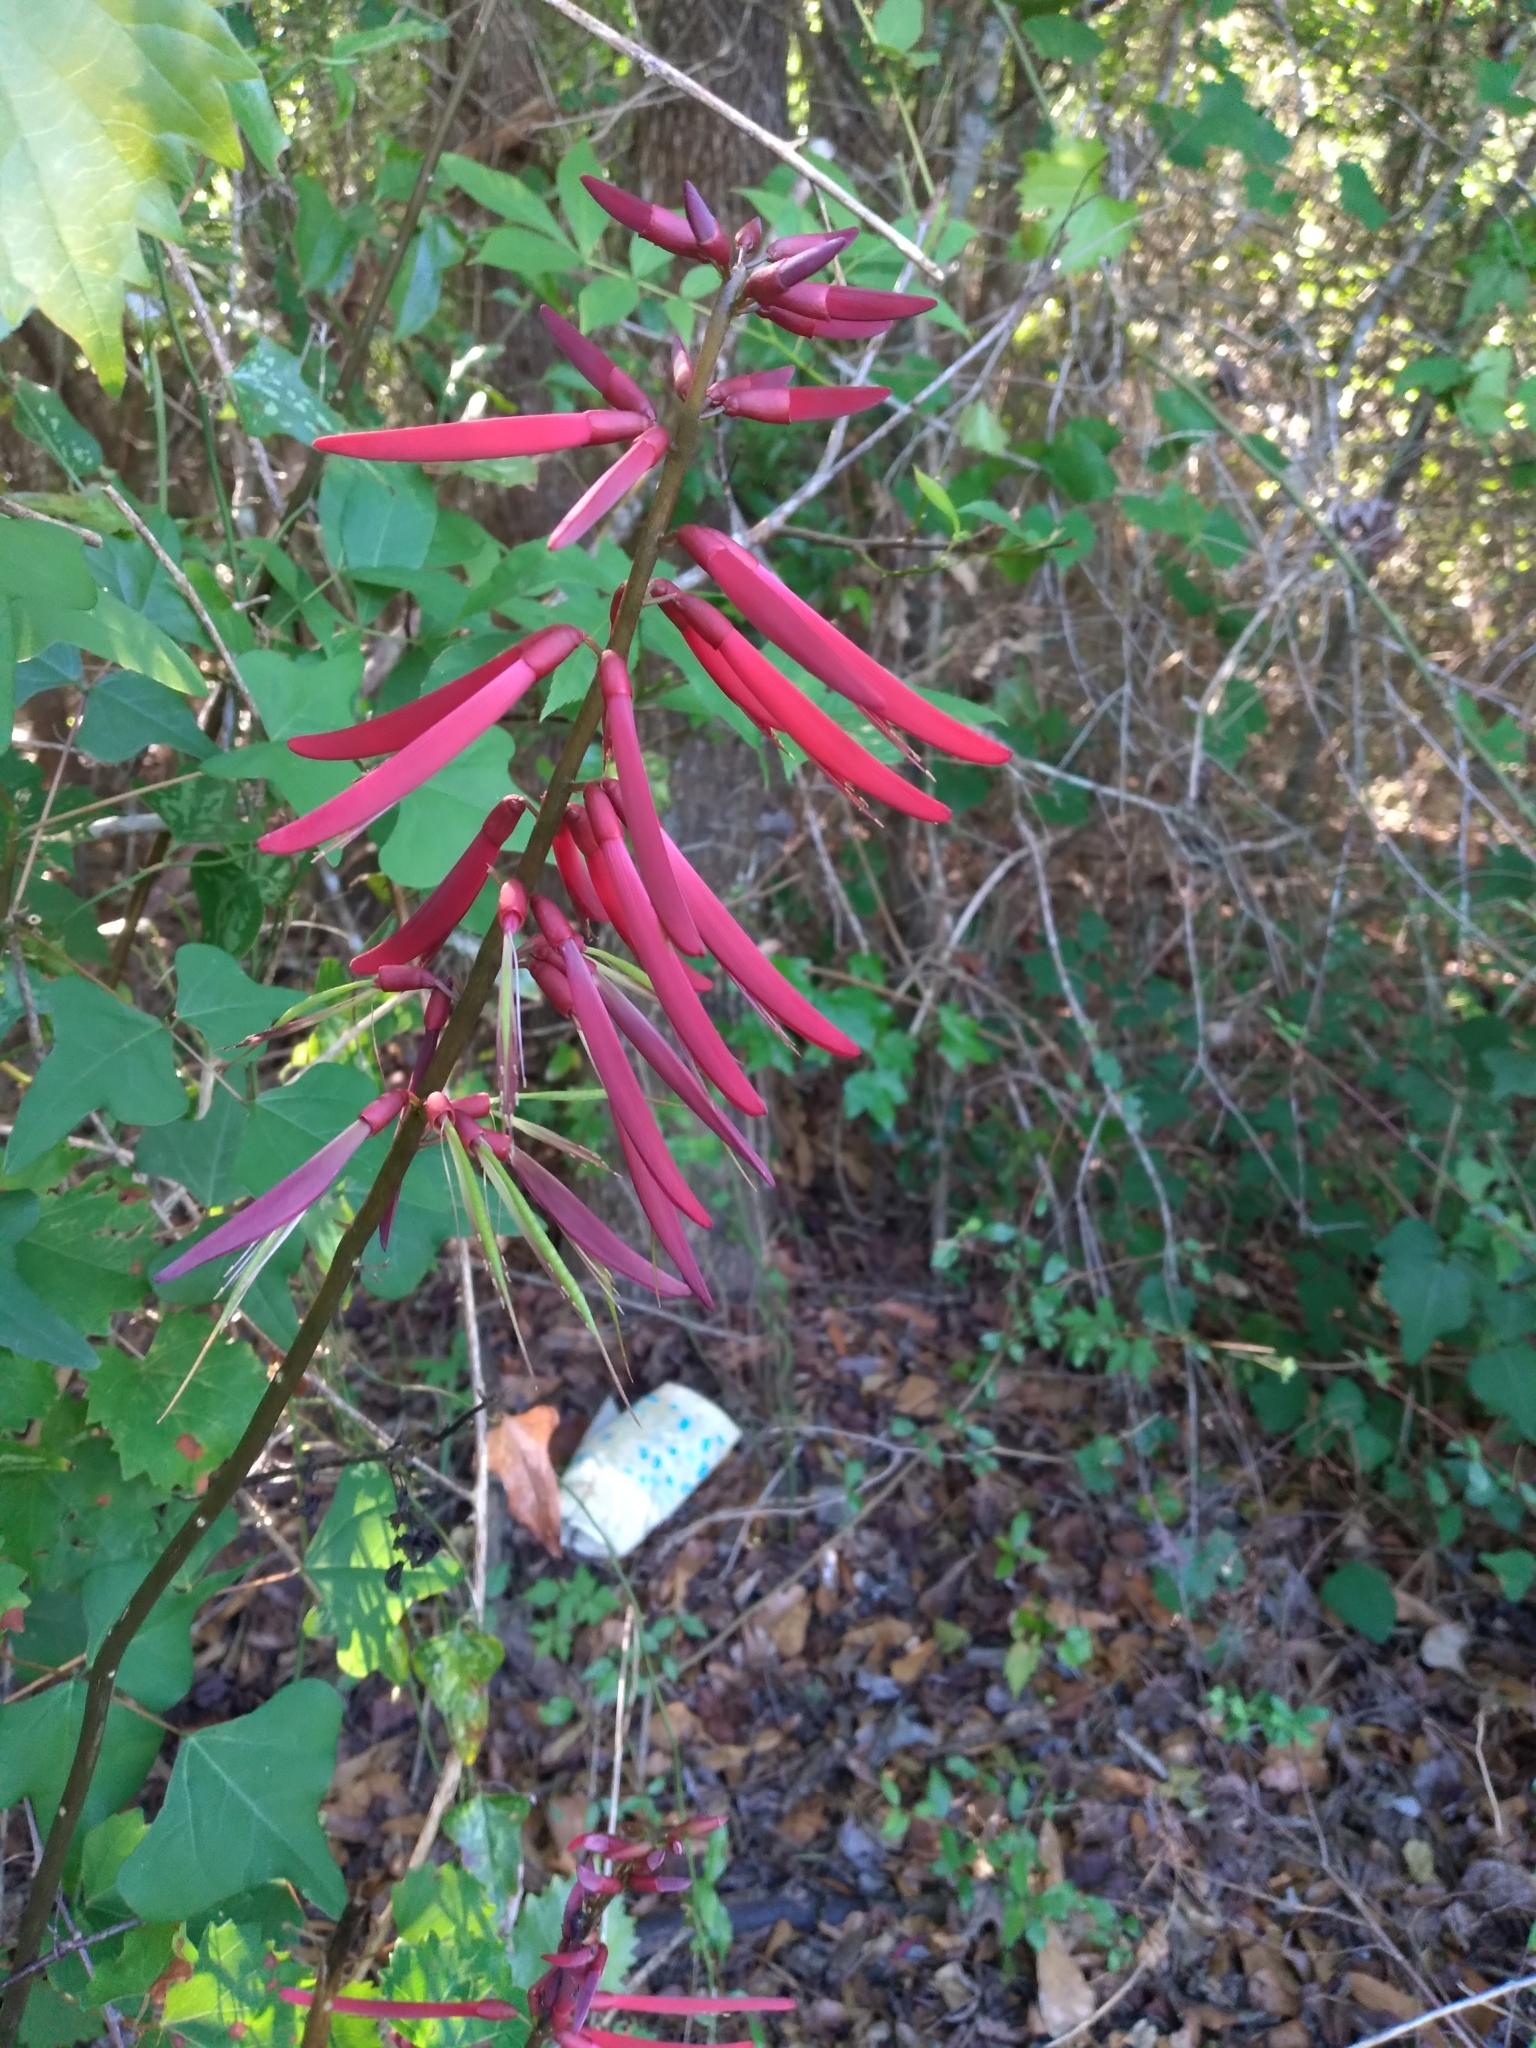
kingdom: Plantae
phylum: Tracheophyta
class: Magnoliopsida
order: Fabales
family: Fabaceae
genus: Erythrina
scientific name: Erythrina herbacea
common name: Coral-bean
